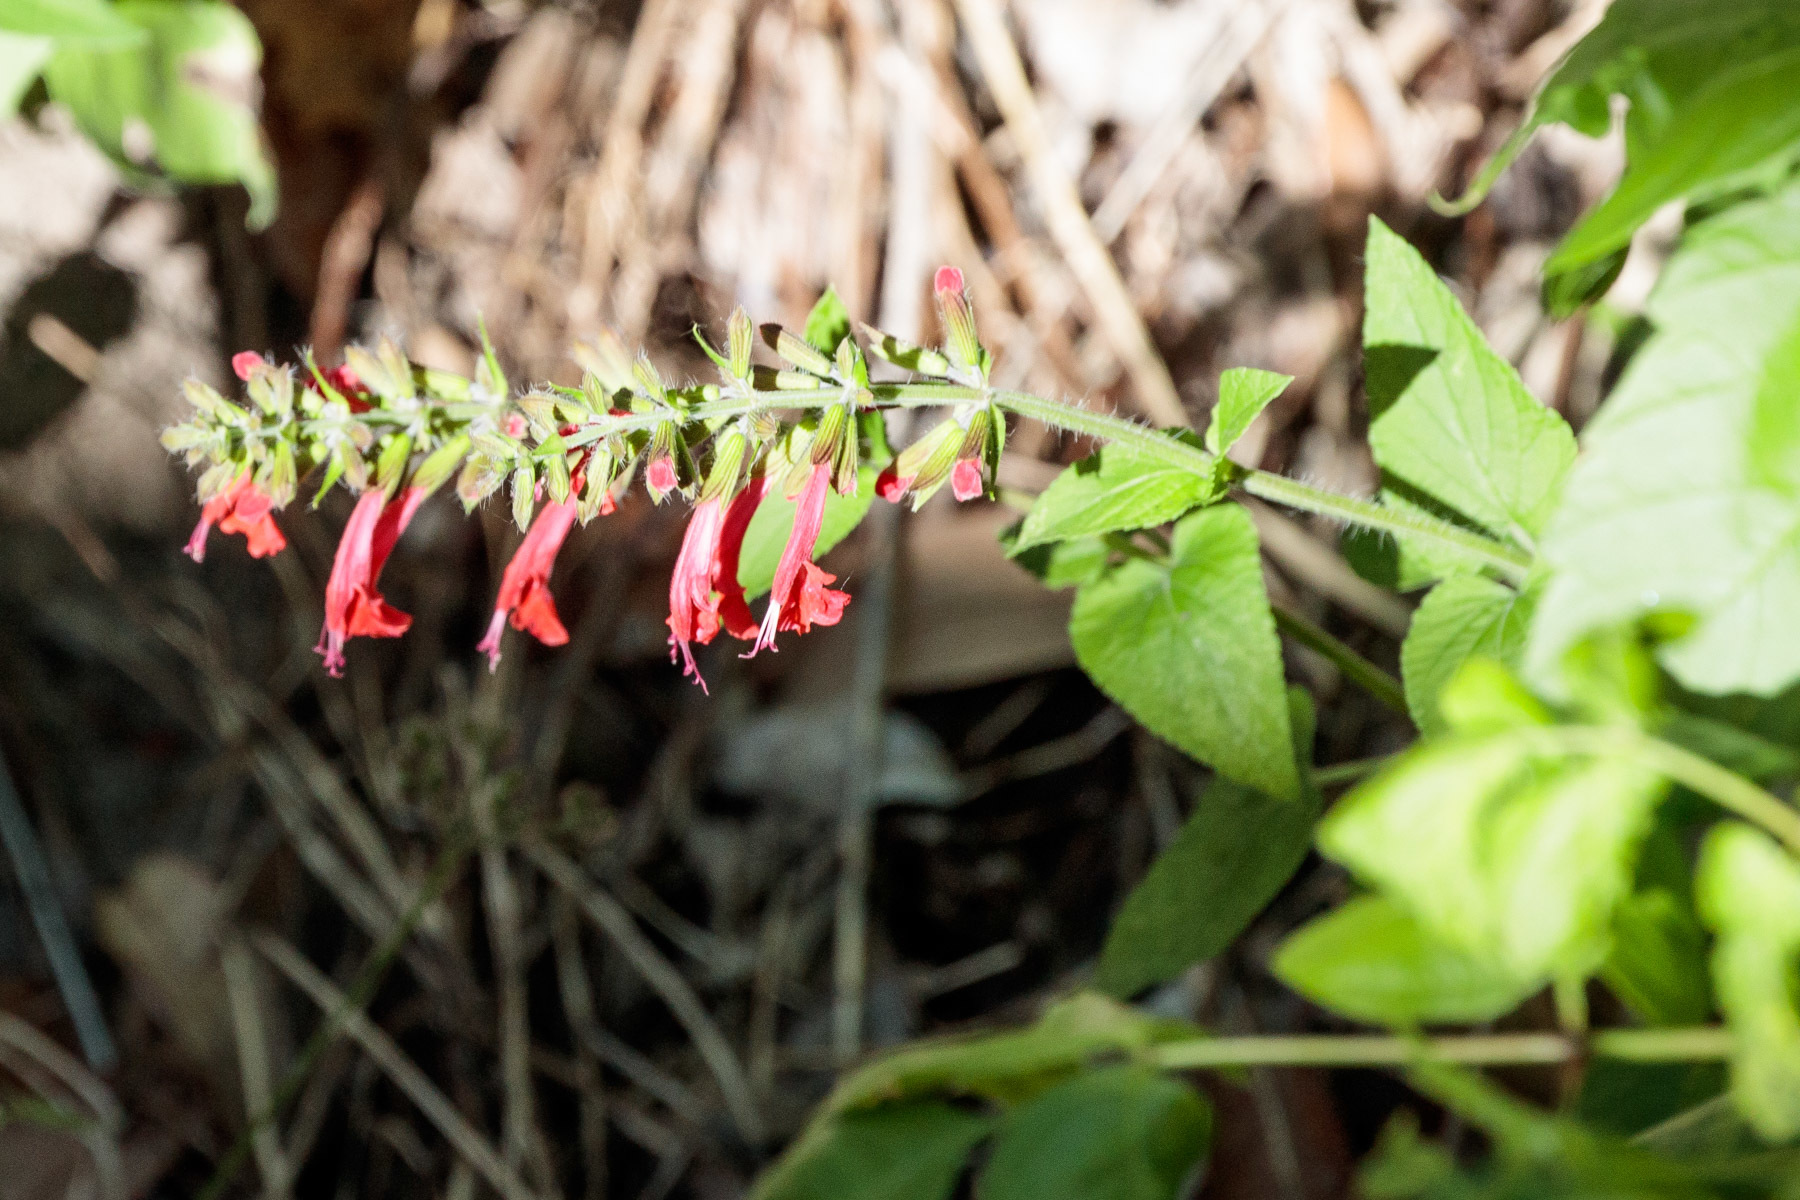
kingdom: Plantae
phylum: Tracheophyta
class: Magnoliopsida
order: Lamiales
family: Lamiaceae
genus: Salvia
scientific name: Salvia coccinea
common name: Blood sage
